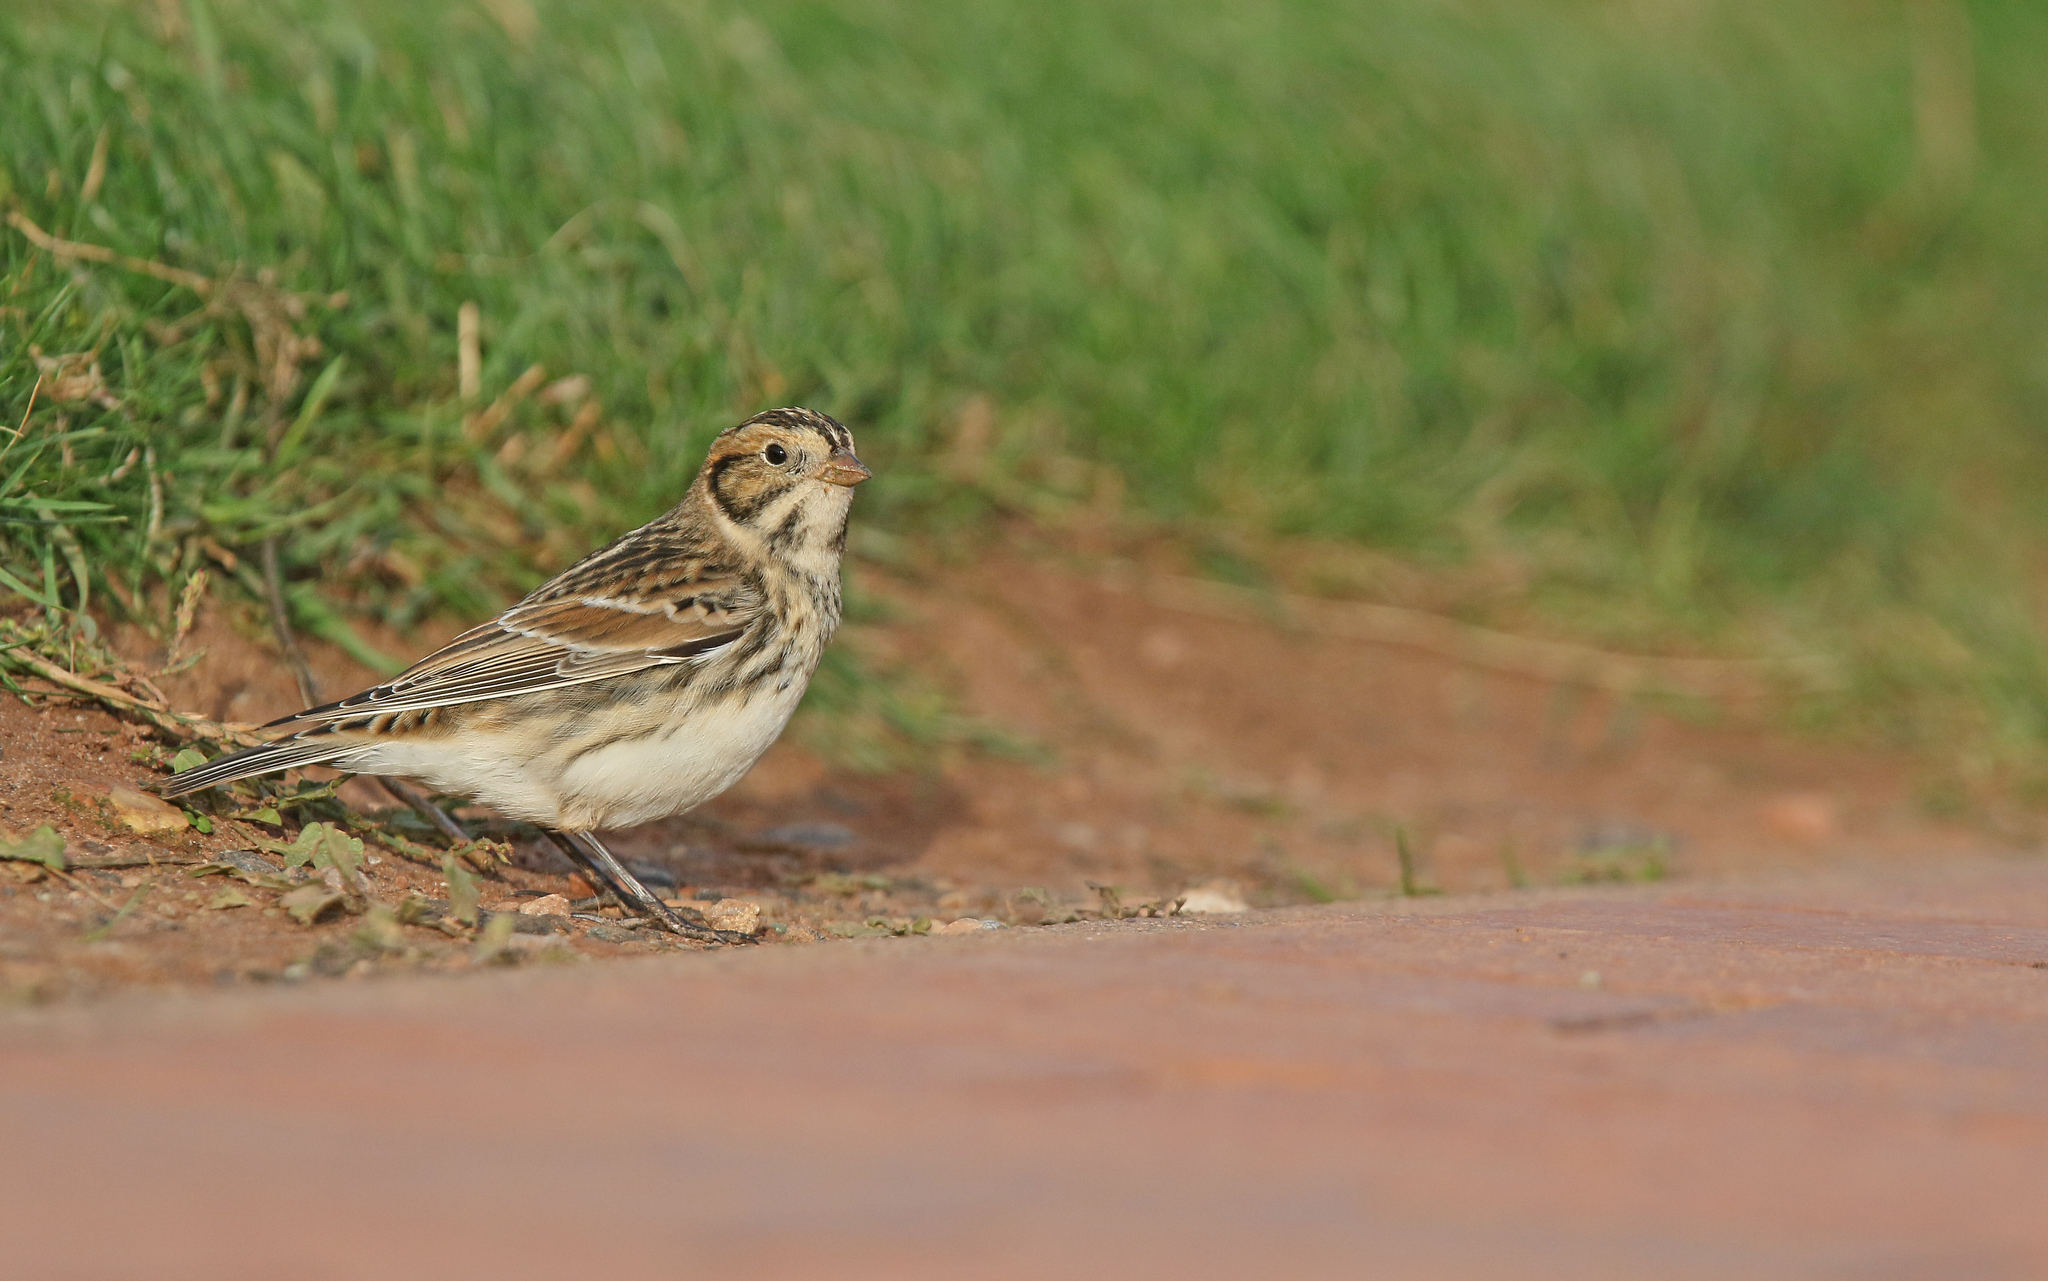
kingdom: Animalia
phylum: Chordata
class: Aves
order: Passeriformes
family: Calcariidae
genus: Calcarius
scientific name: Calcarius lapponicus
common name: Lapland longspur
